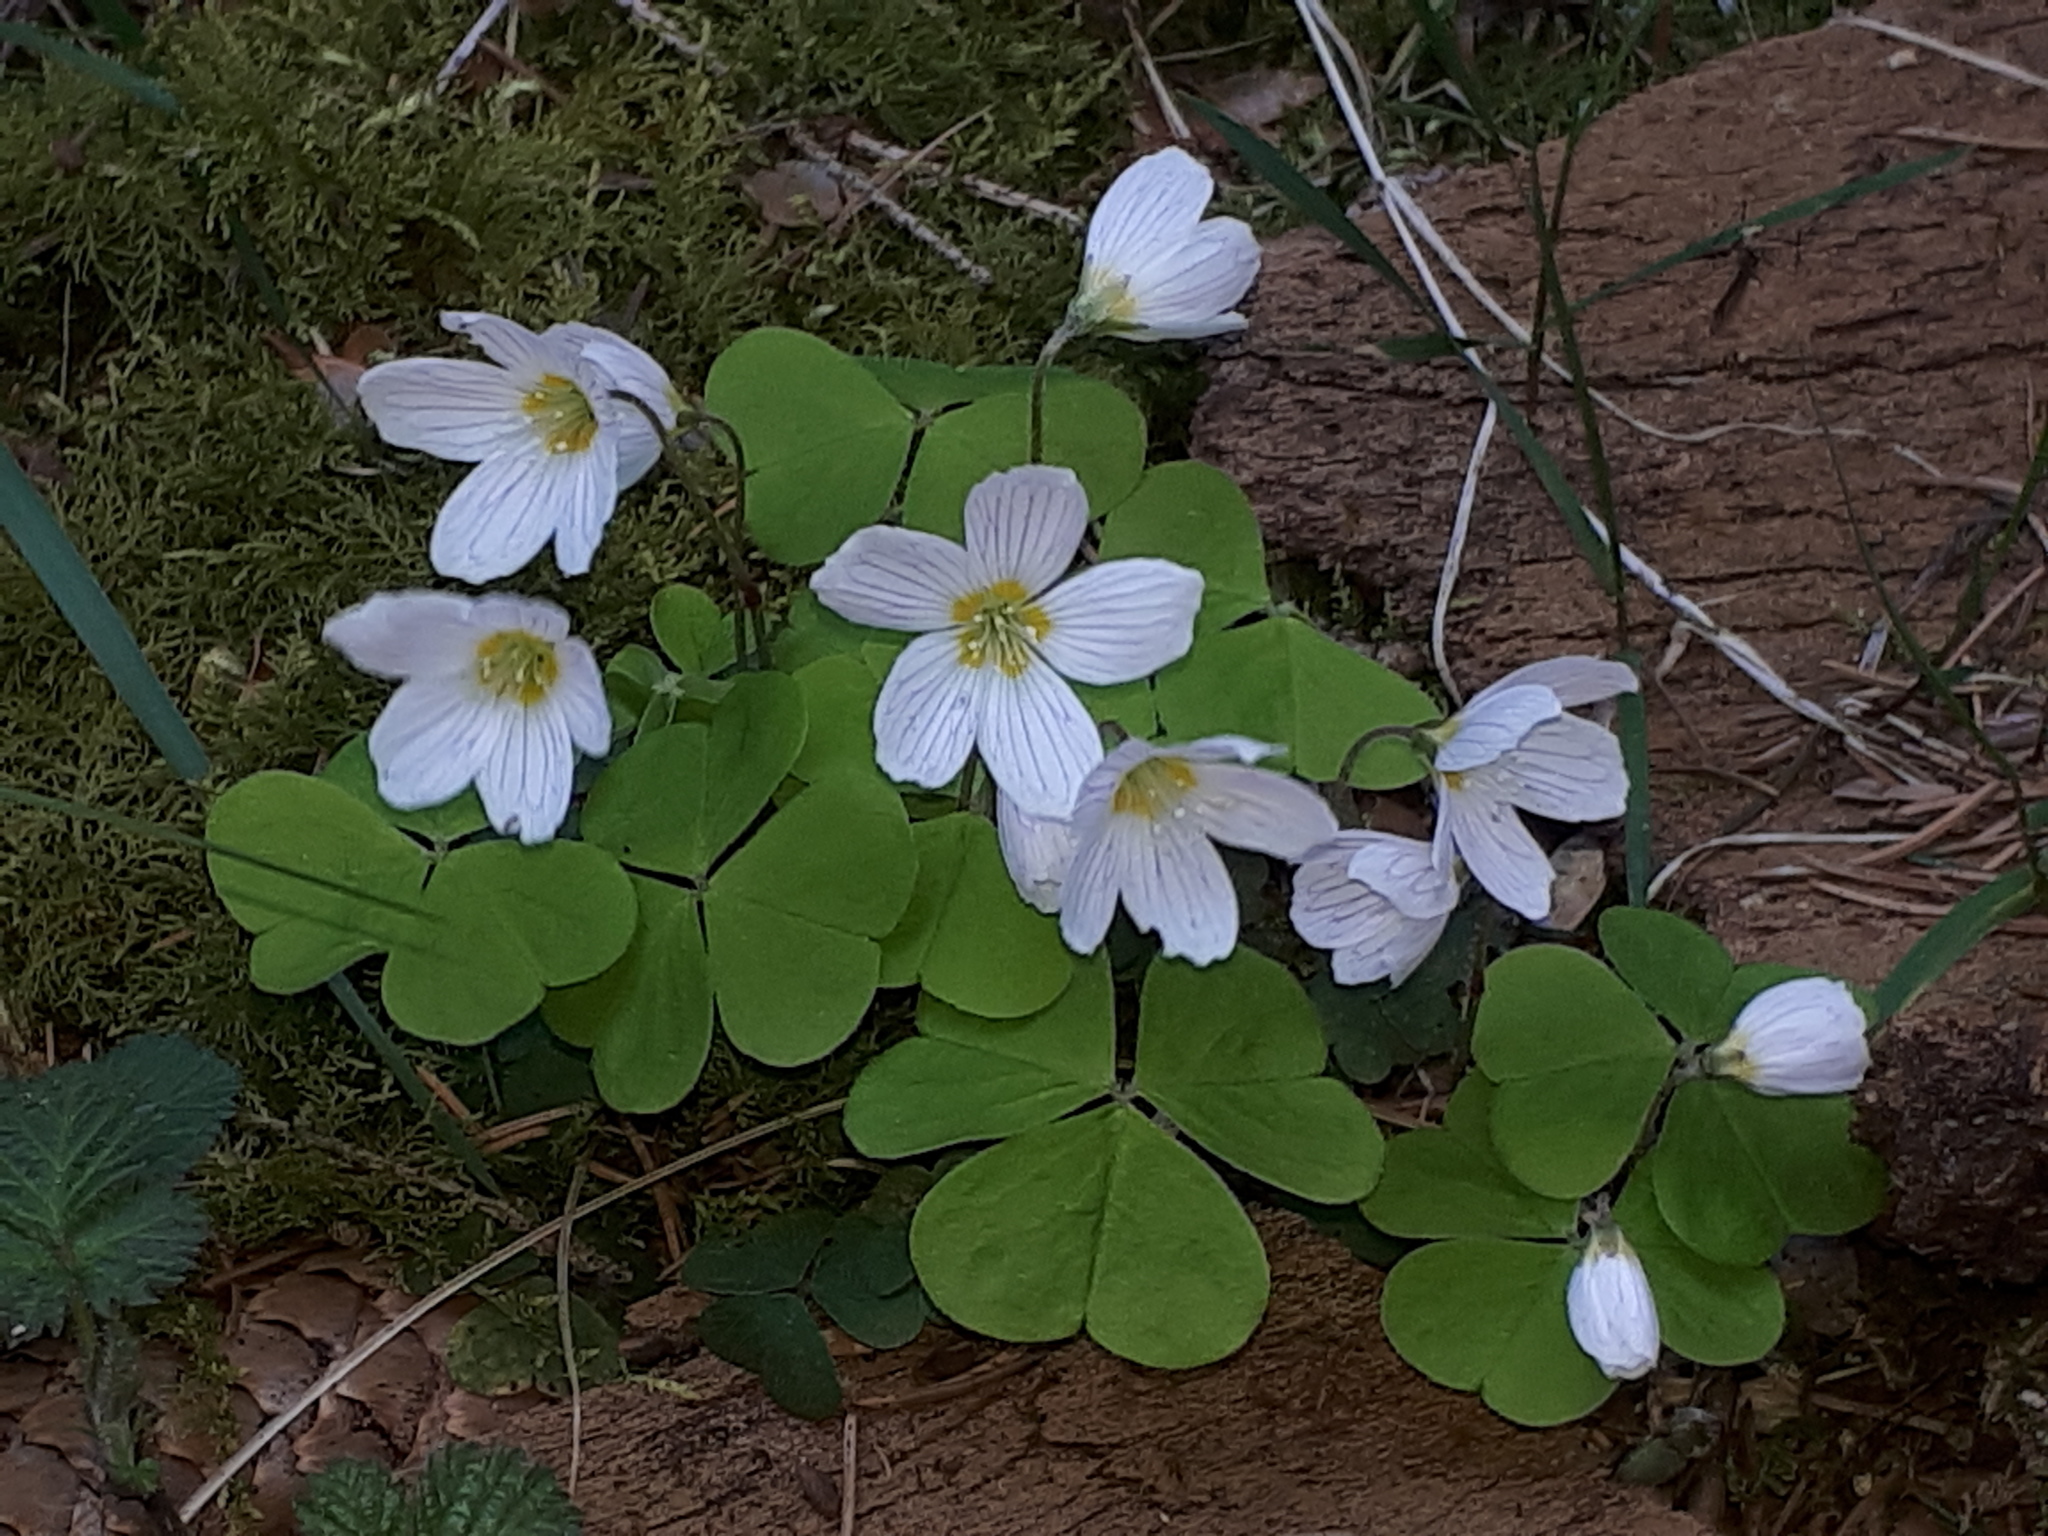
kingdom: Plantae
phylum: Tracheophyta
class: Magnoliopsida
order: Oxalidales
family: Oxalidaceae
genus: Oxalis
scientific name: Oxalis acetosella
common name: Wood-sorrel
